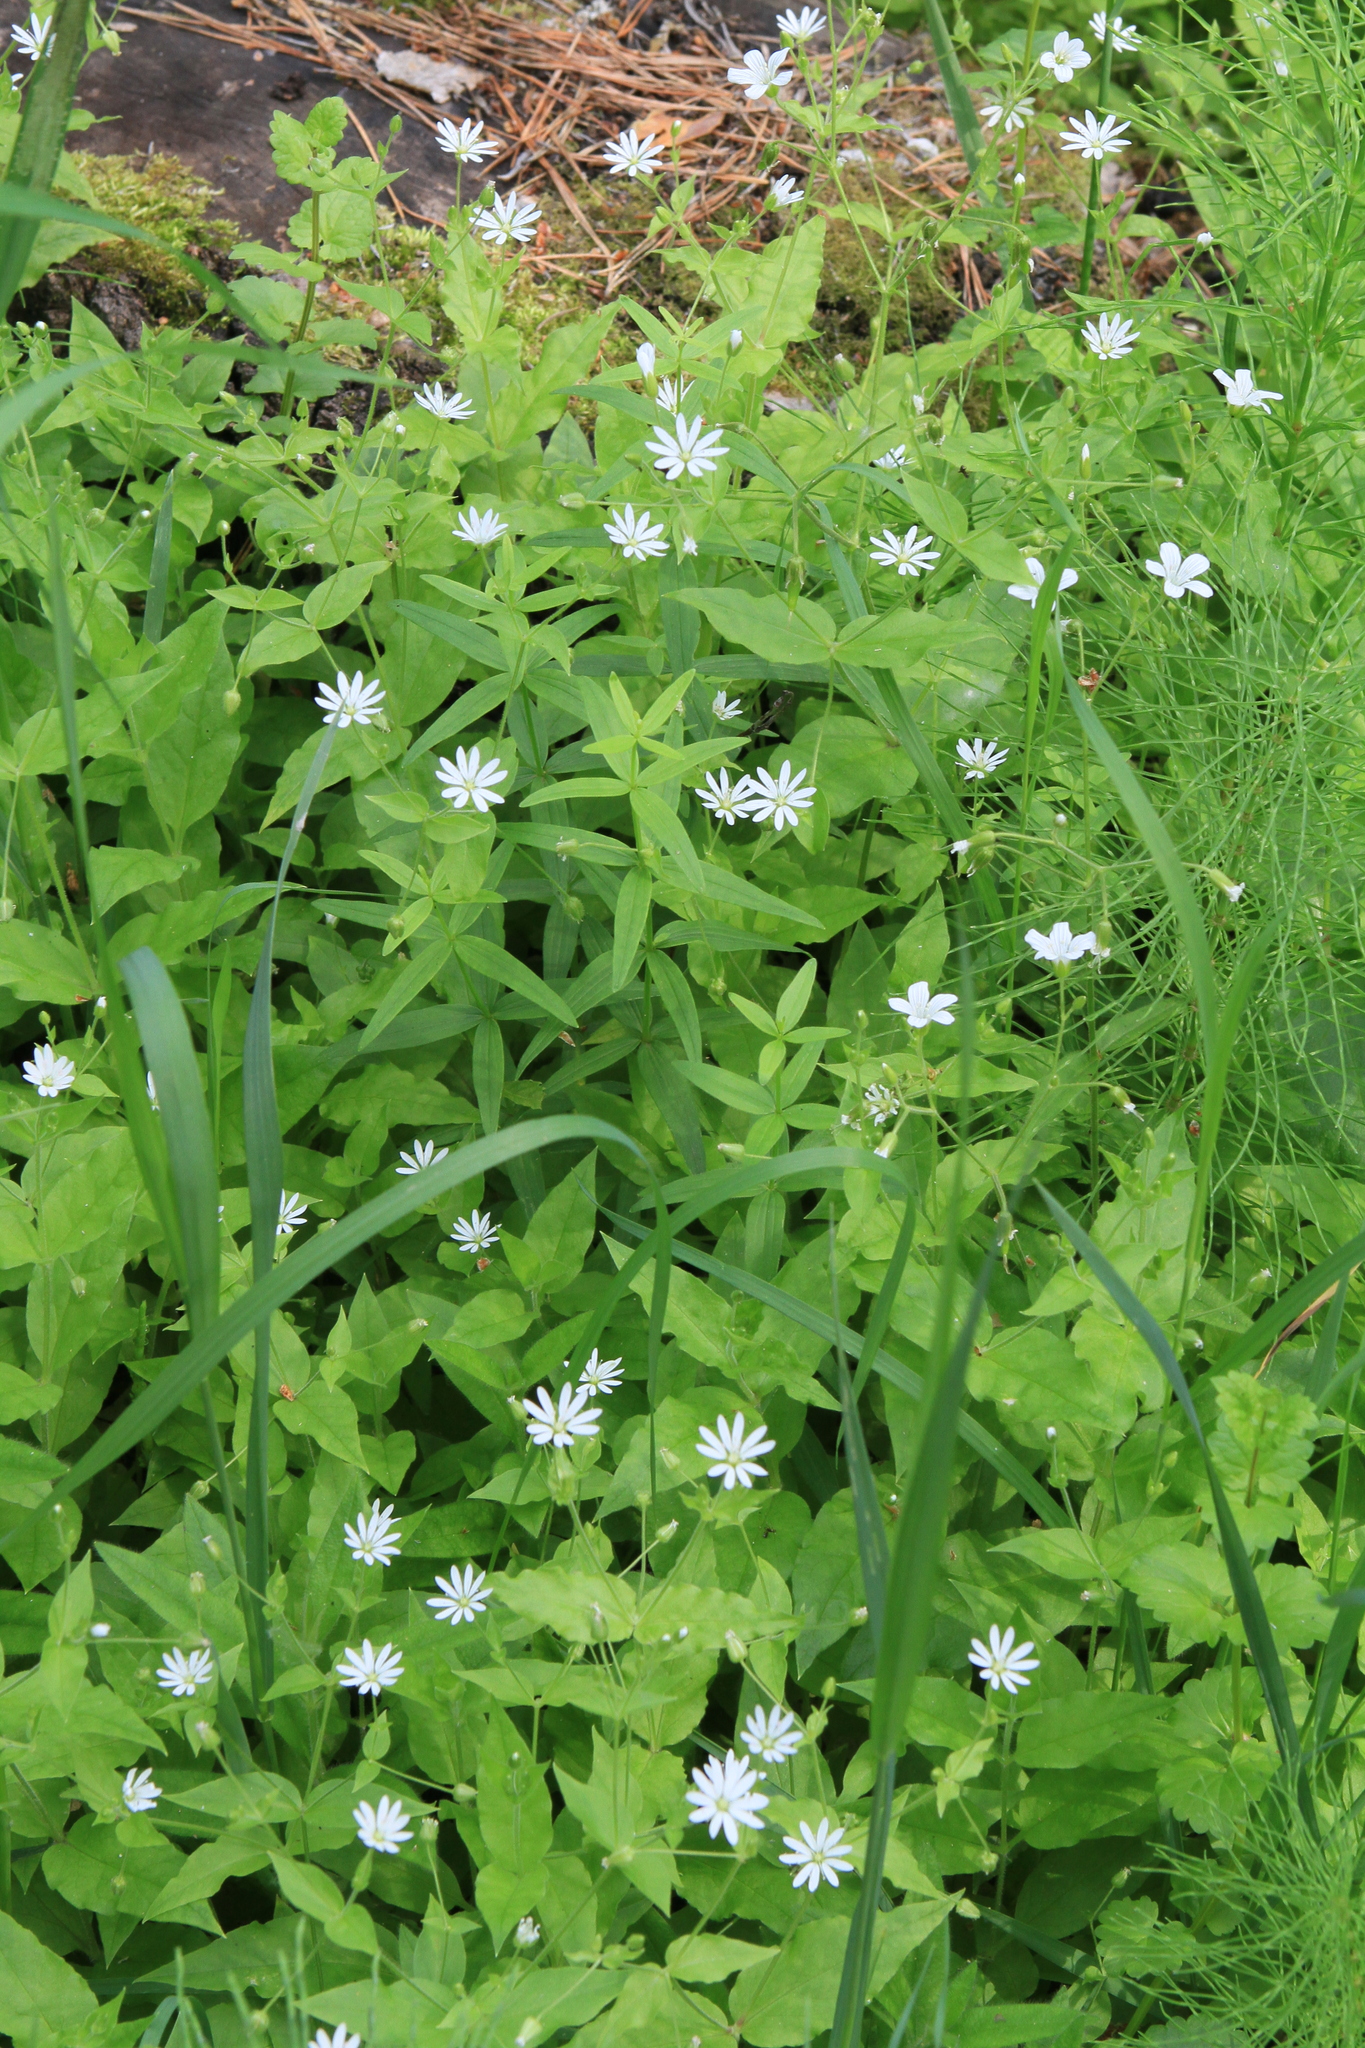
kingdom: Plantae
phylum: Tracheophyta
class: Magnoliopsida
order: Caryophyllales
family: Caryophyllaceae
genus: Stellaria
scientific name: Stellaria bungeana
